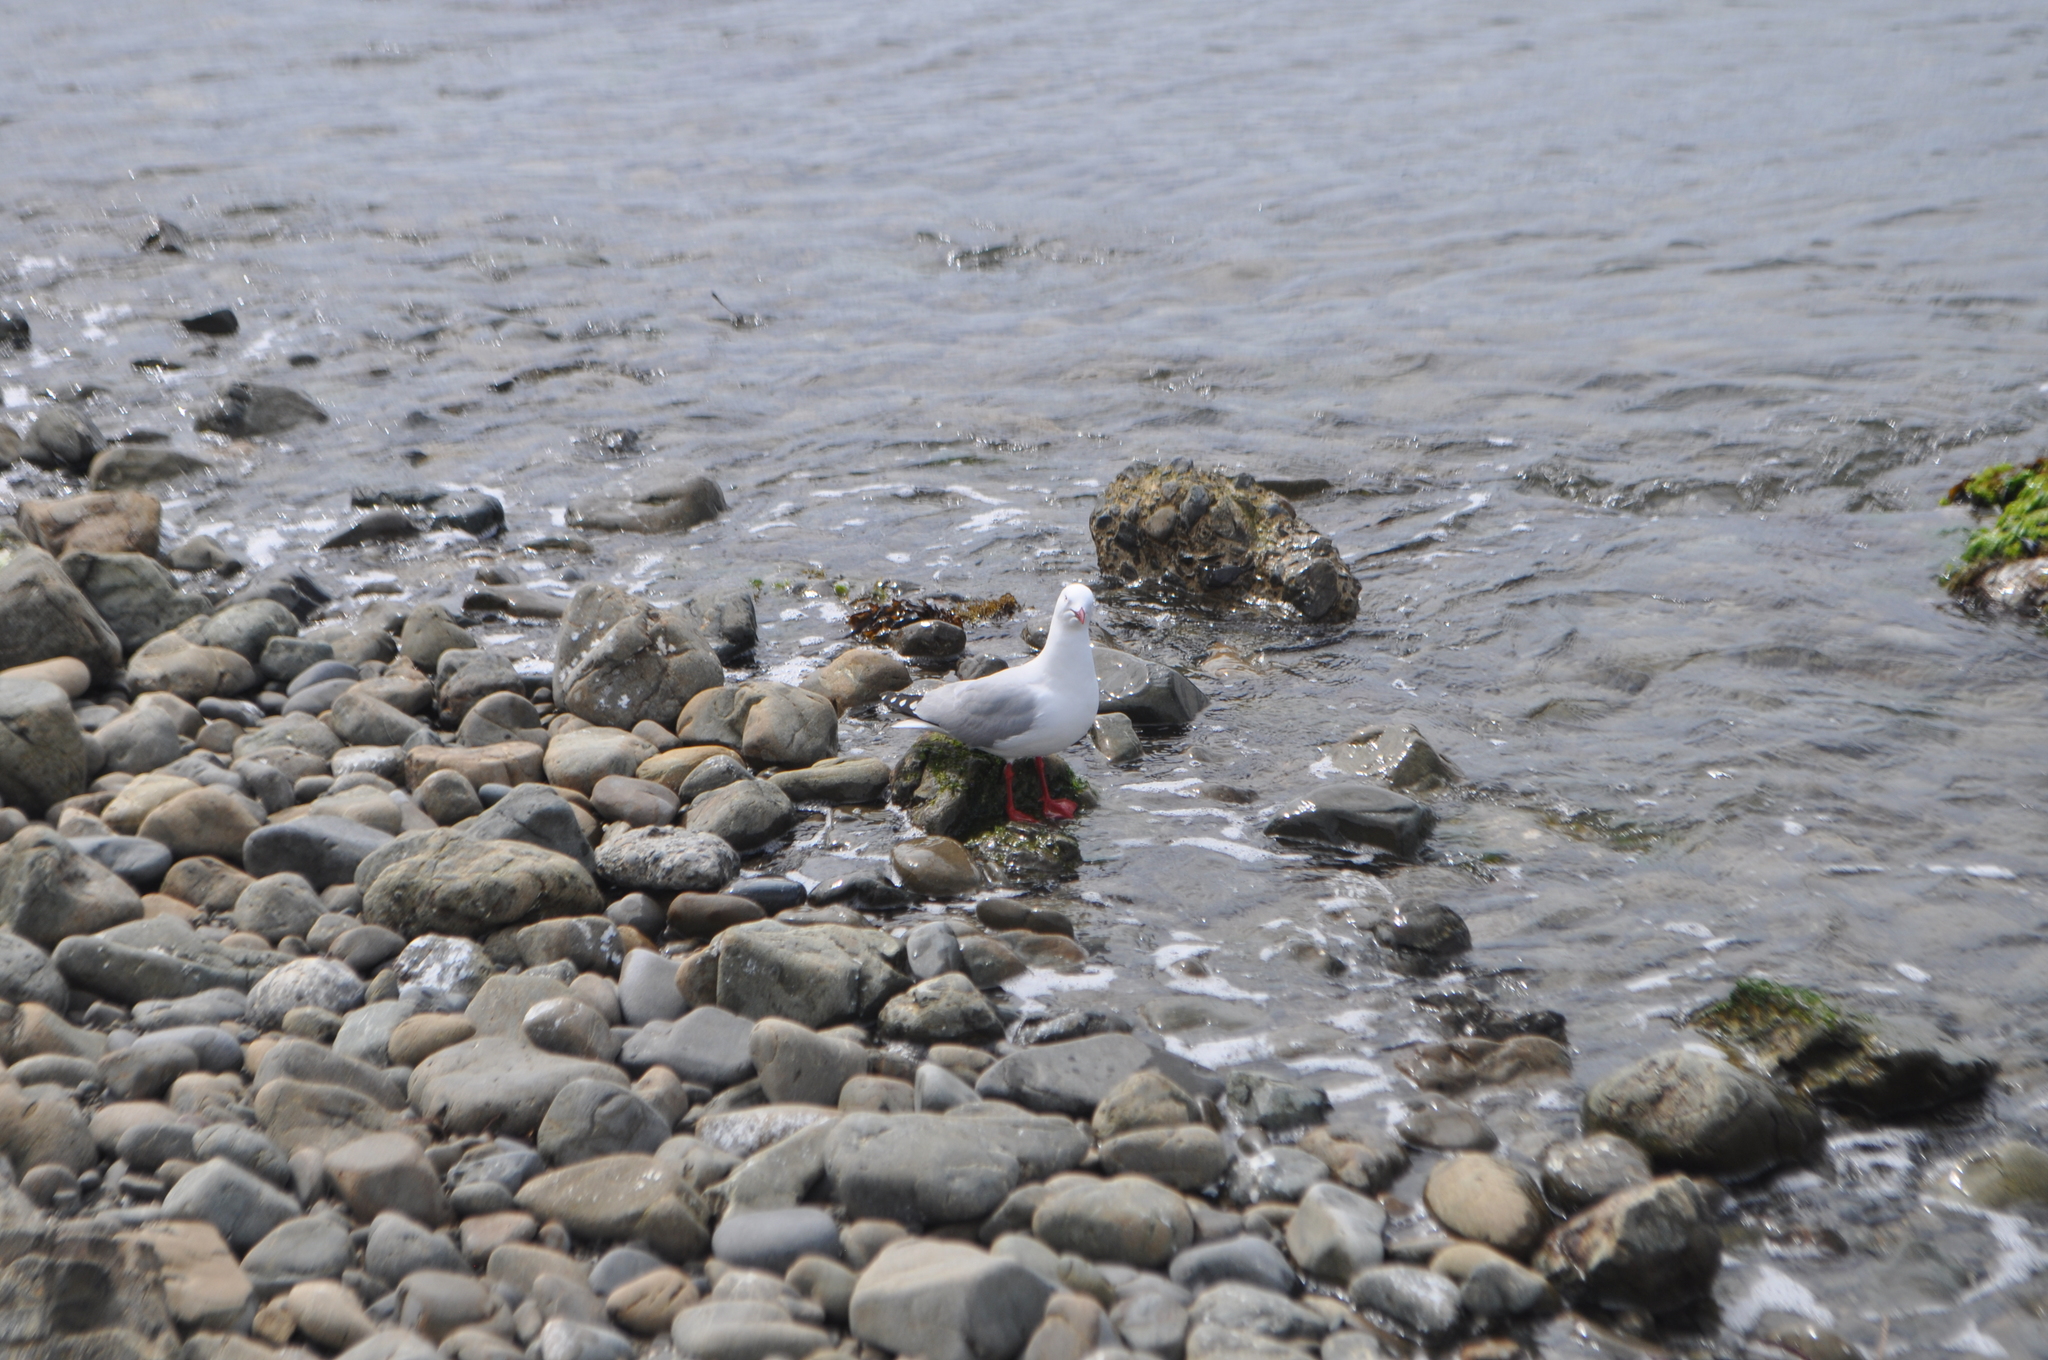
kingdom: Animalia
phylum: Chordata
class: Aves
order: Charadriiformes
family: Laridae
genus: Chroicocephalus
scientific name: Chroicocephalus novaehollandiae
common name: Silver gull
